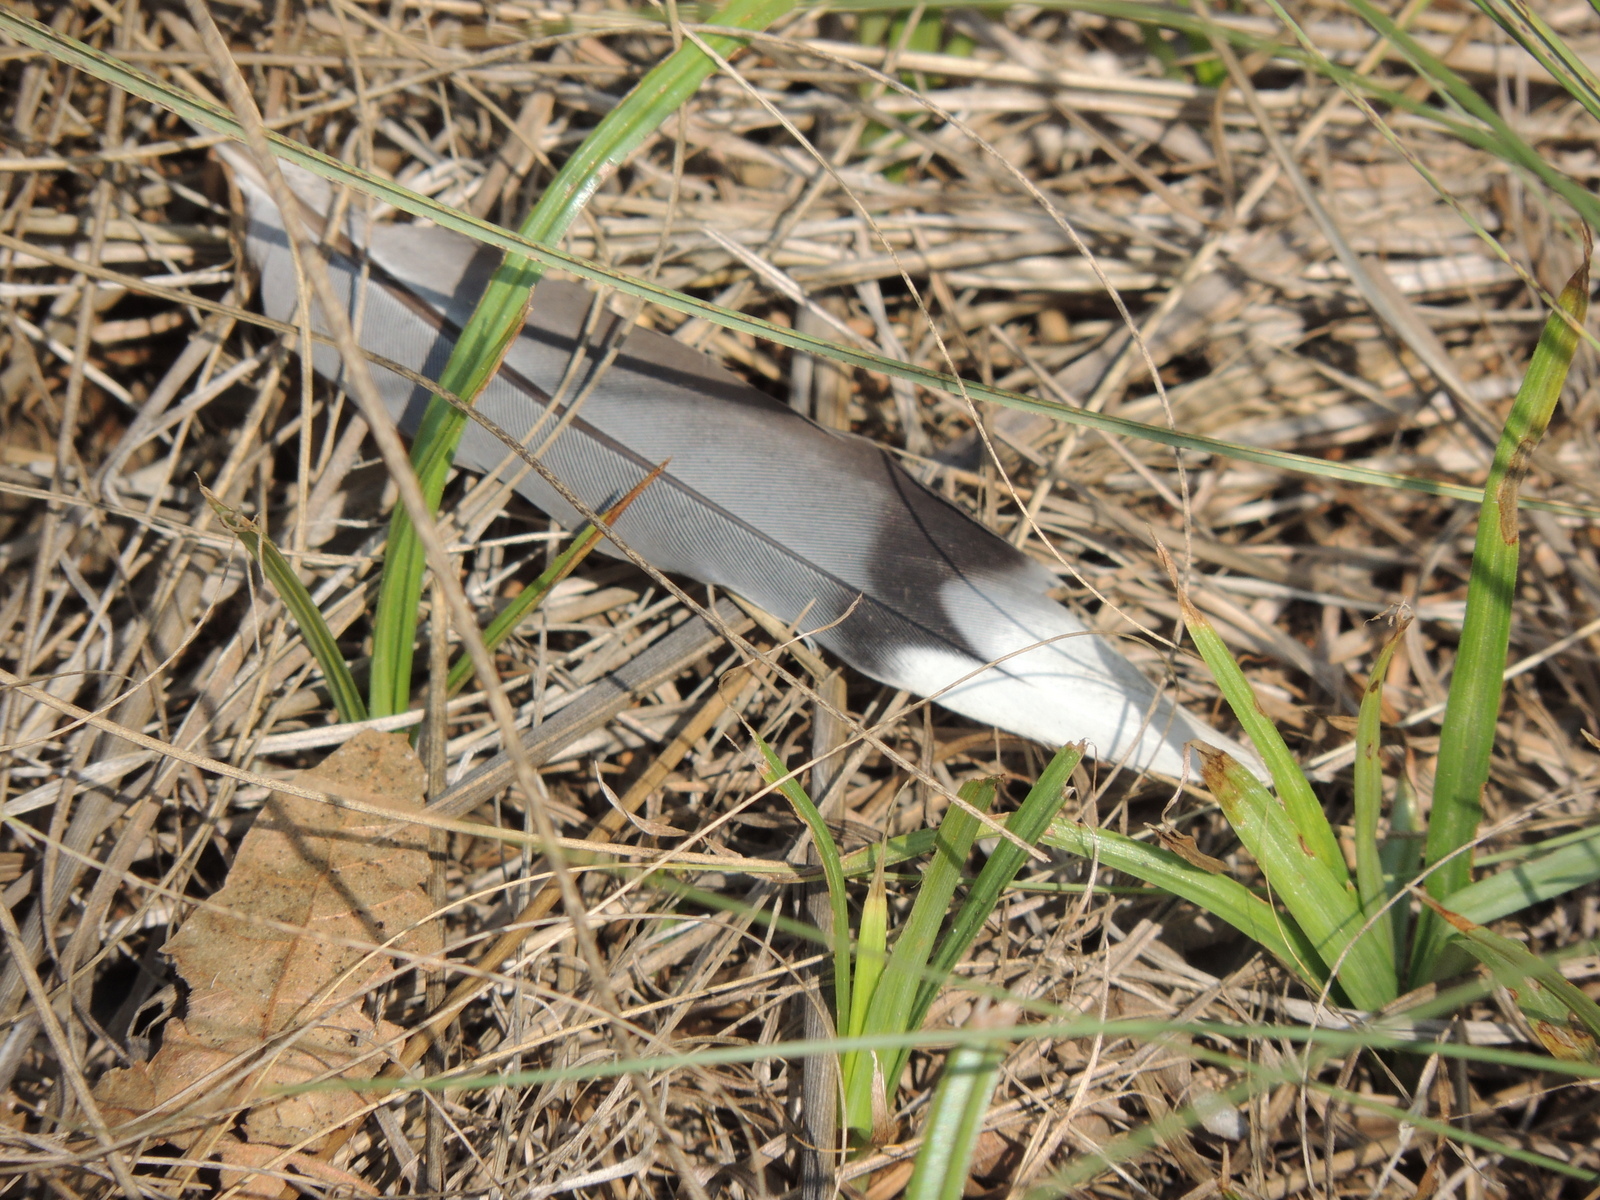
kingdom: Animalia
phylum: Chordata
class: Aves
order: Columbiformes
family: Columbidae
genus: Zenaida
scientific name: Zenaida macroura
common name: Mourning dove
